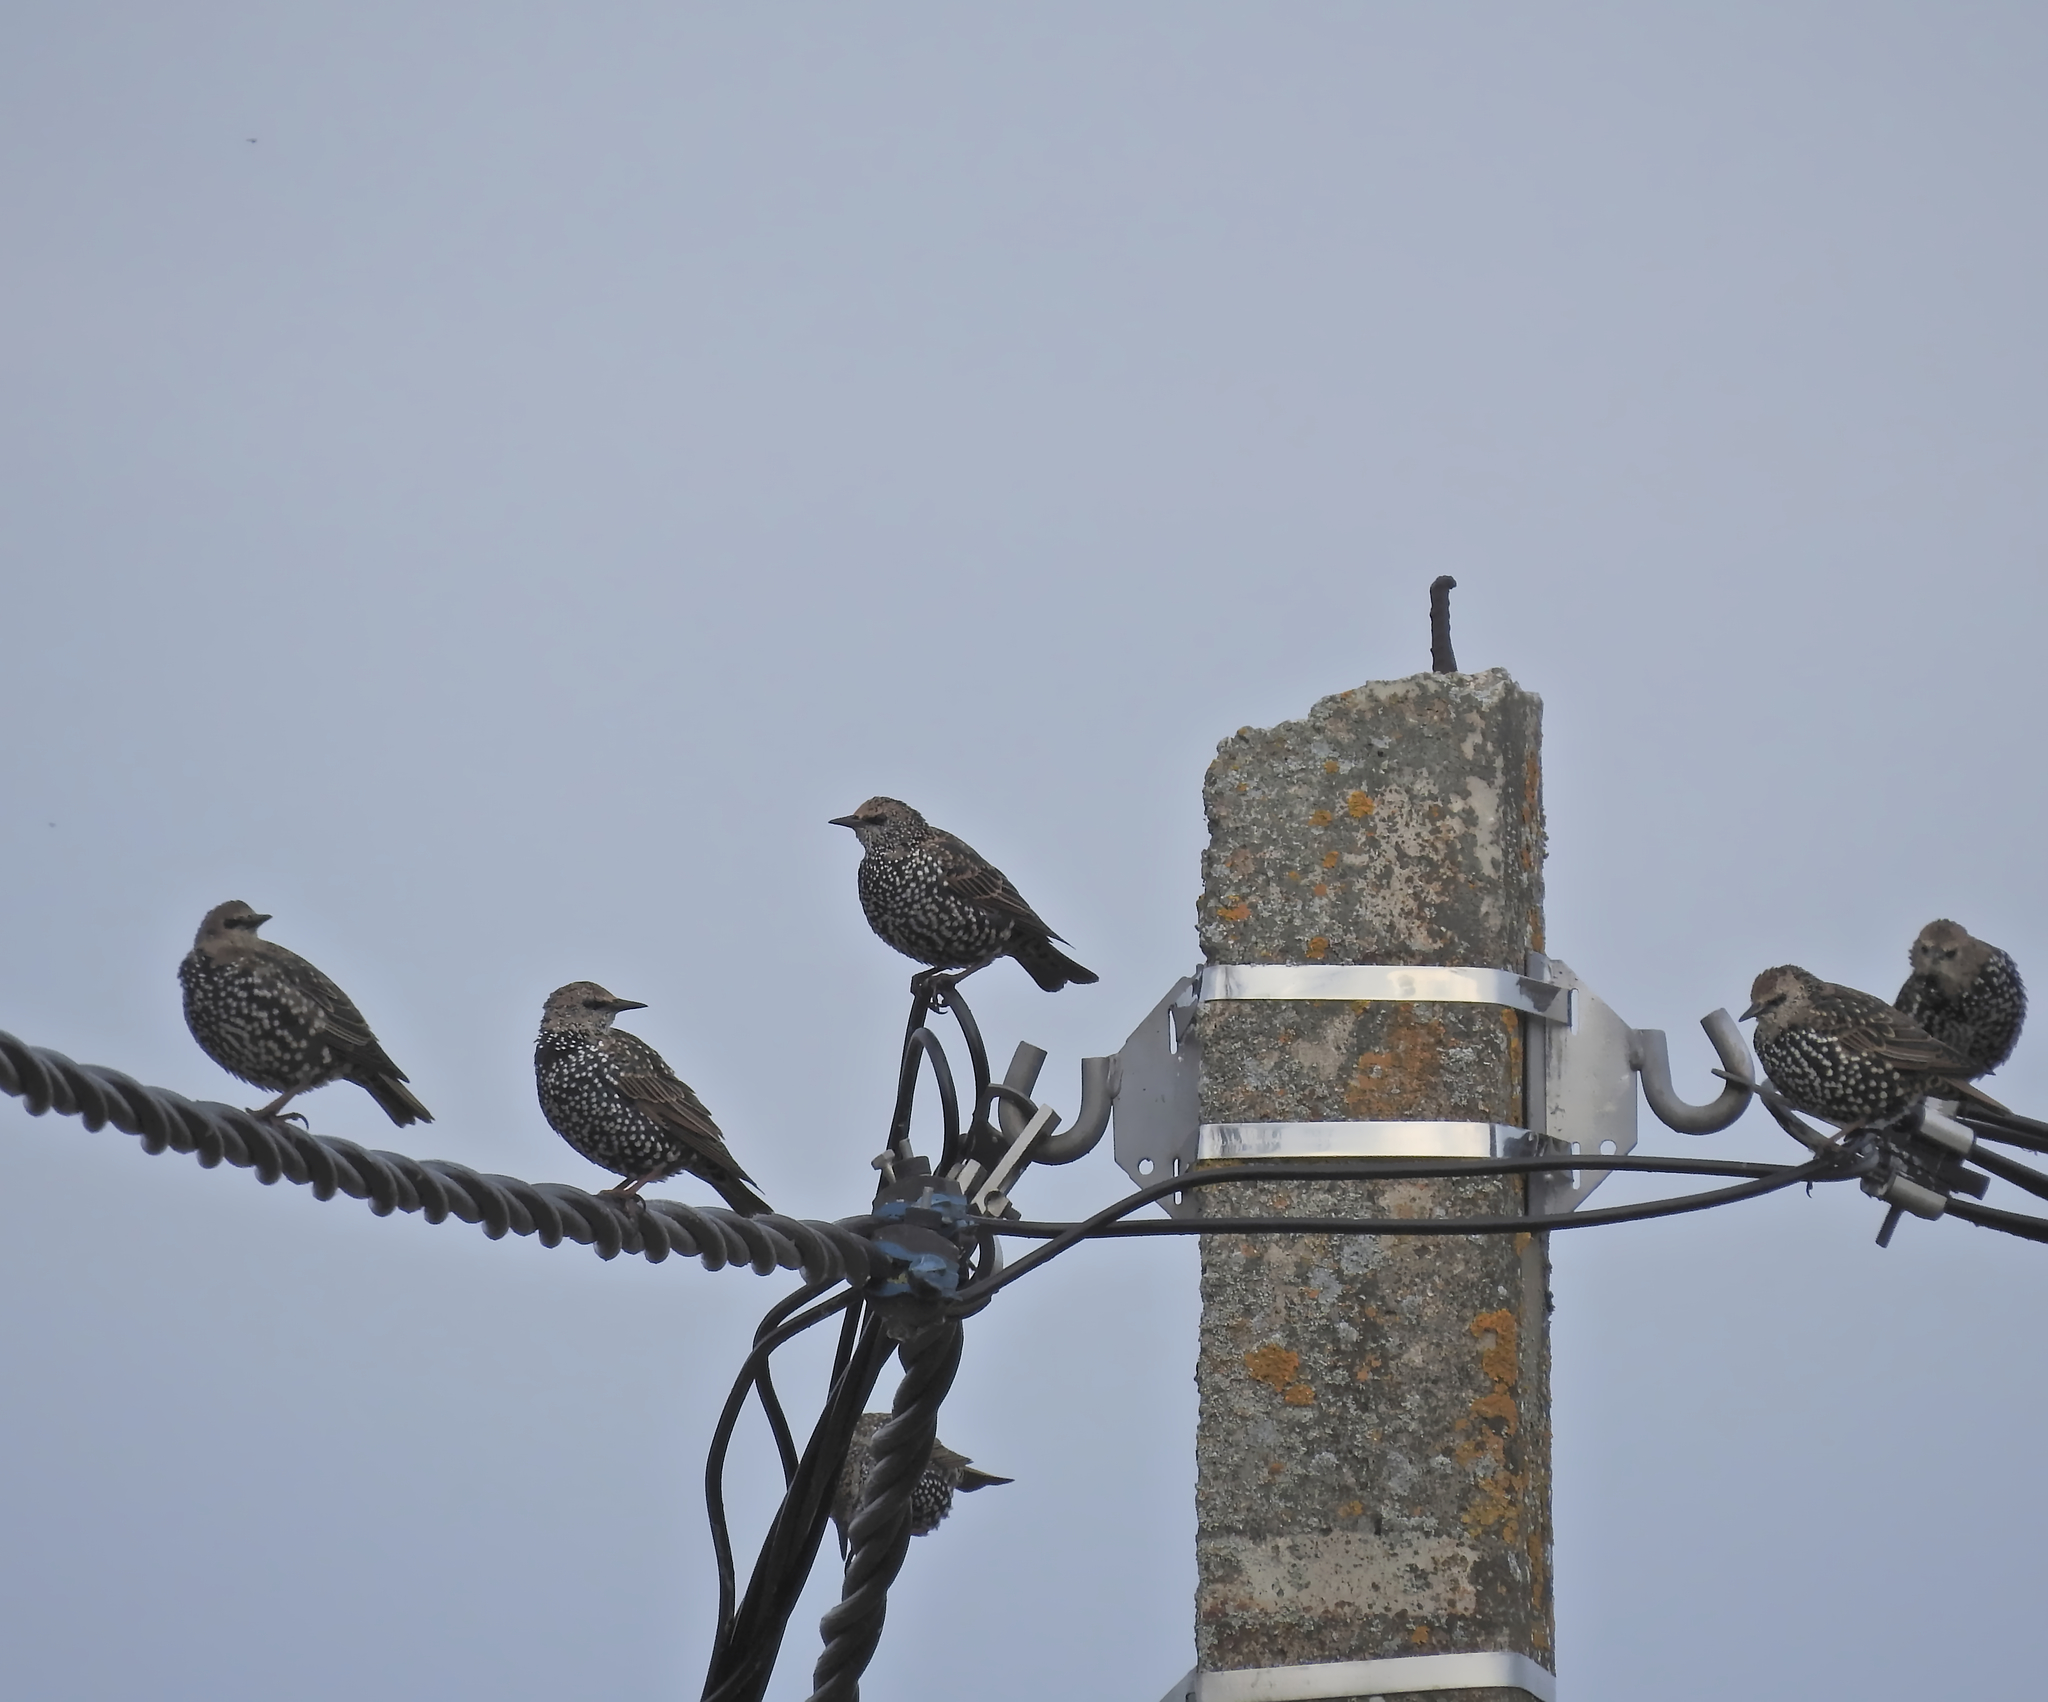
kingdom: Animalia
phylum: Chordata
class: Aves
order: Passeriformes
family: Sturnidae
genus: Sturnus
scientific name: Sturnus vulgaris
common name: Common starling
